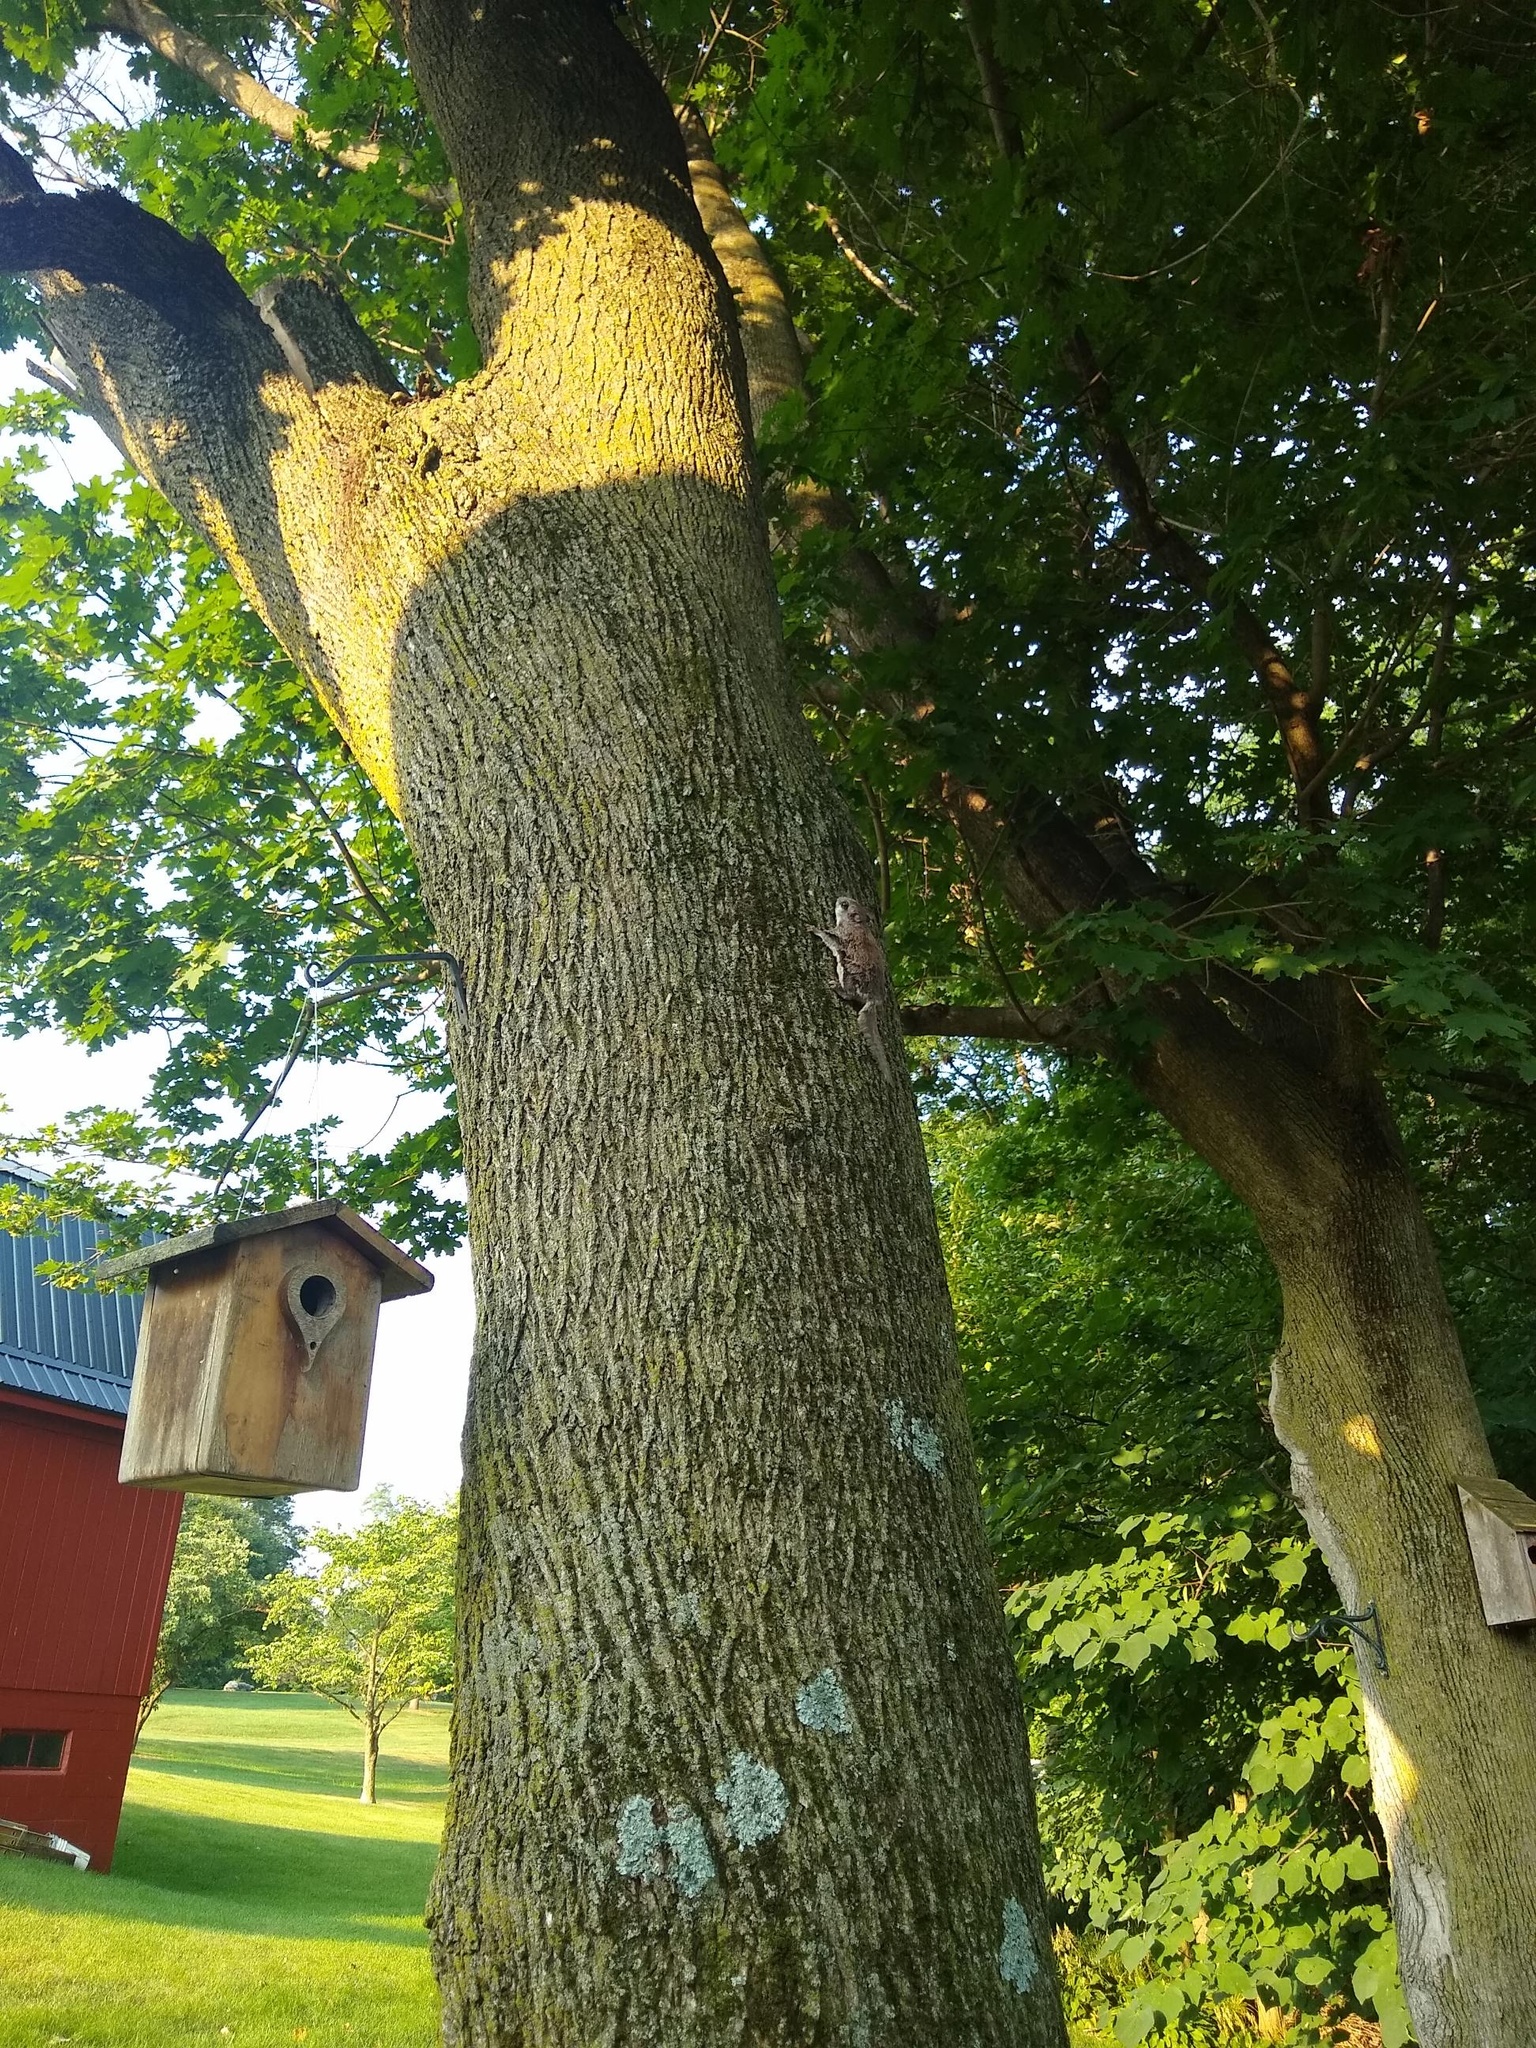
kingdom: Animalia
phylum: Chordata
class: Mammalia
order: Rodentia
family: Sciuridae
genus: Glaucomys
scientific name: Glaucomys volans
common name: Southern flying squirrel
